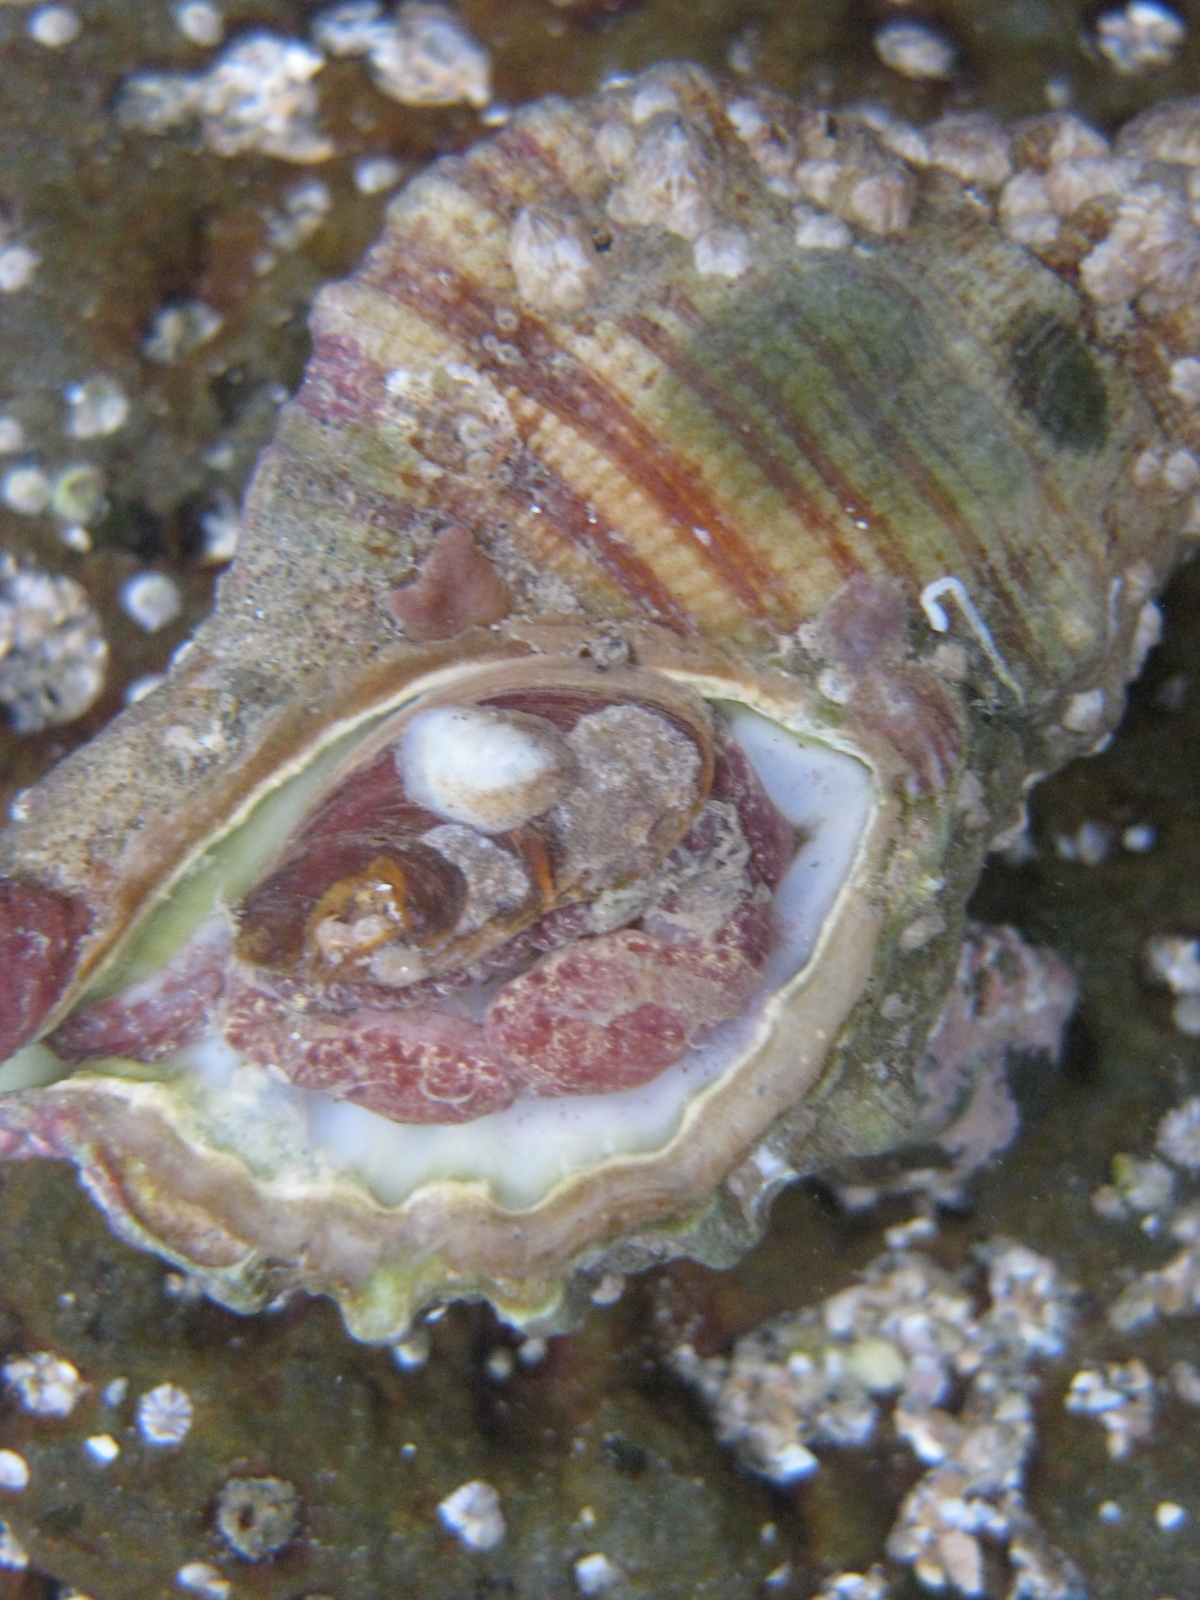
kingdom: Animalia
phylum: Mollusca
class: Gastropoda
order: Littorinimorpha
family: Cymatiidae
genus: Cabestana
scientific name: Cabestana spengleri
